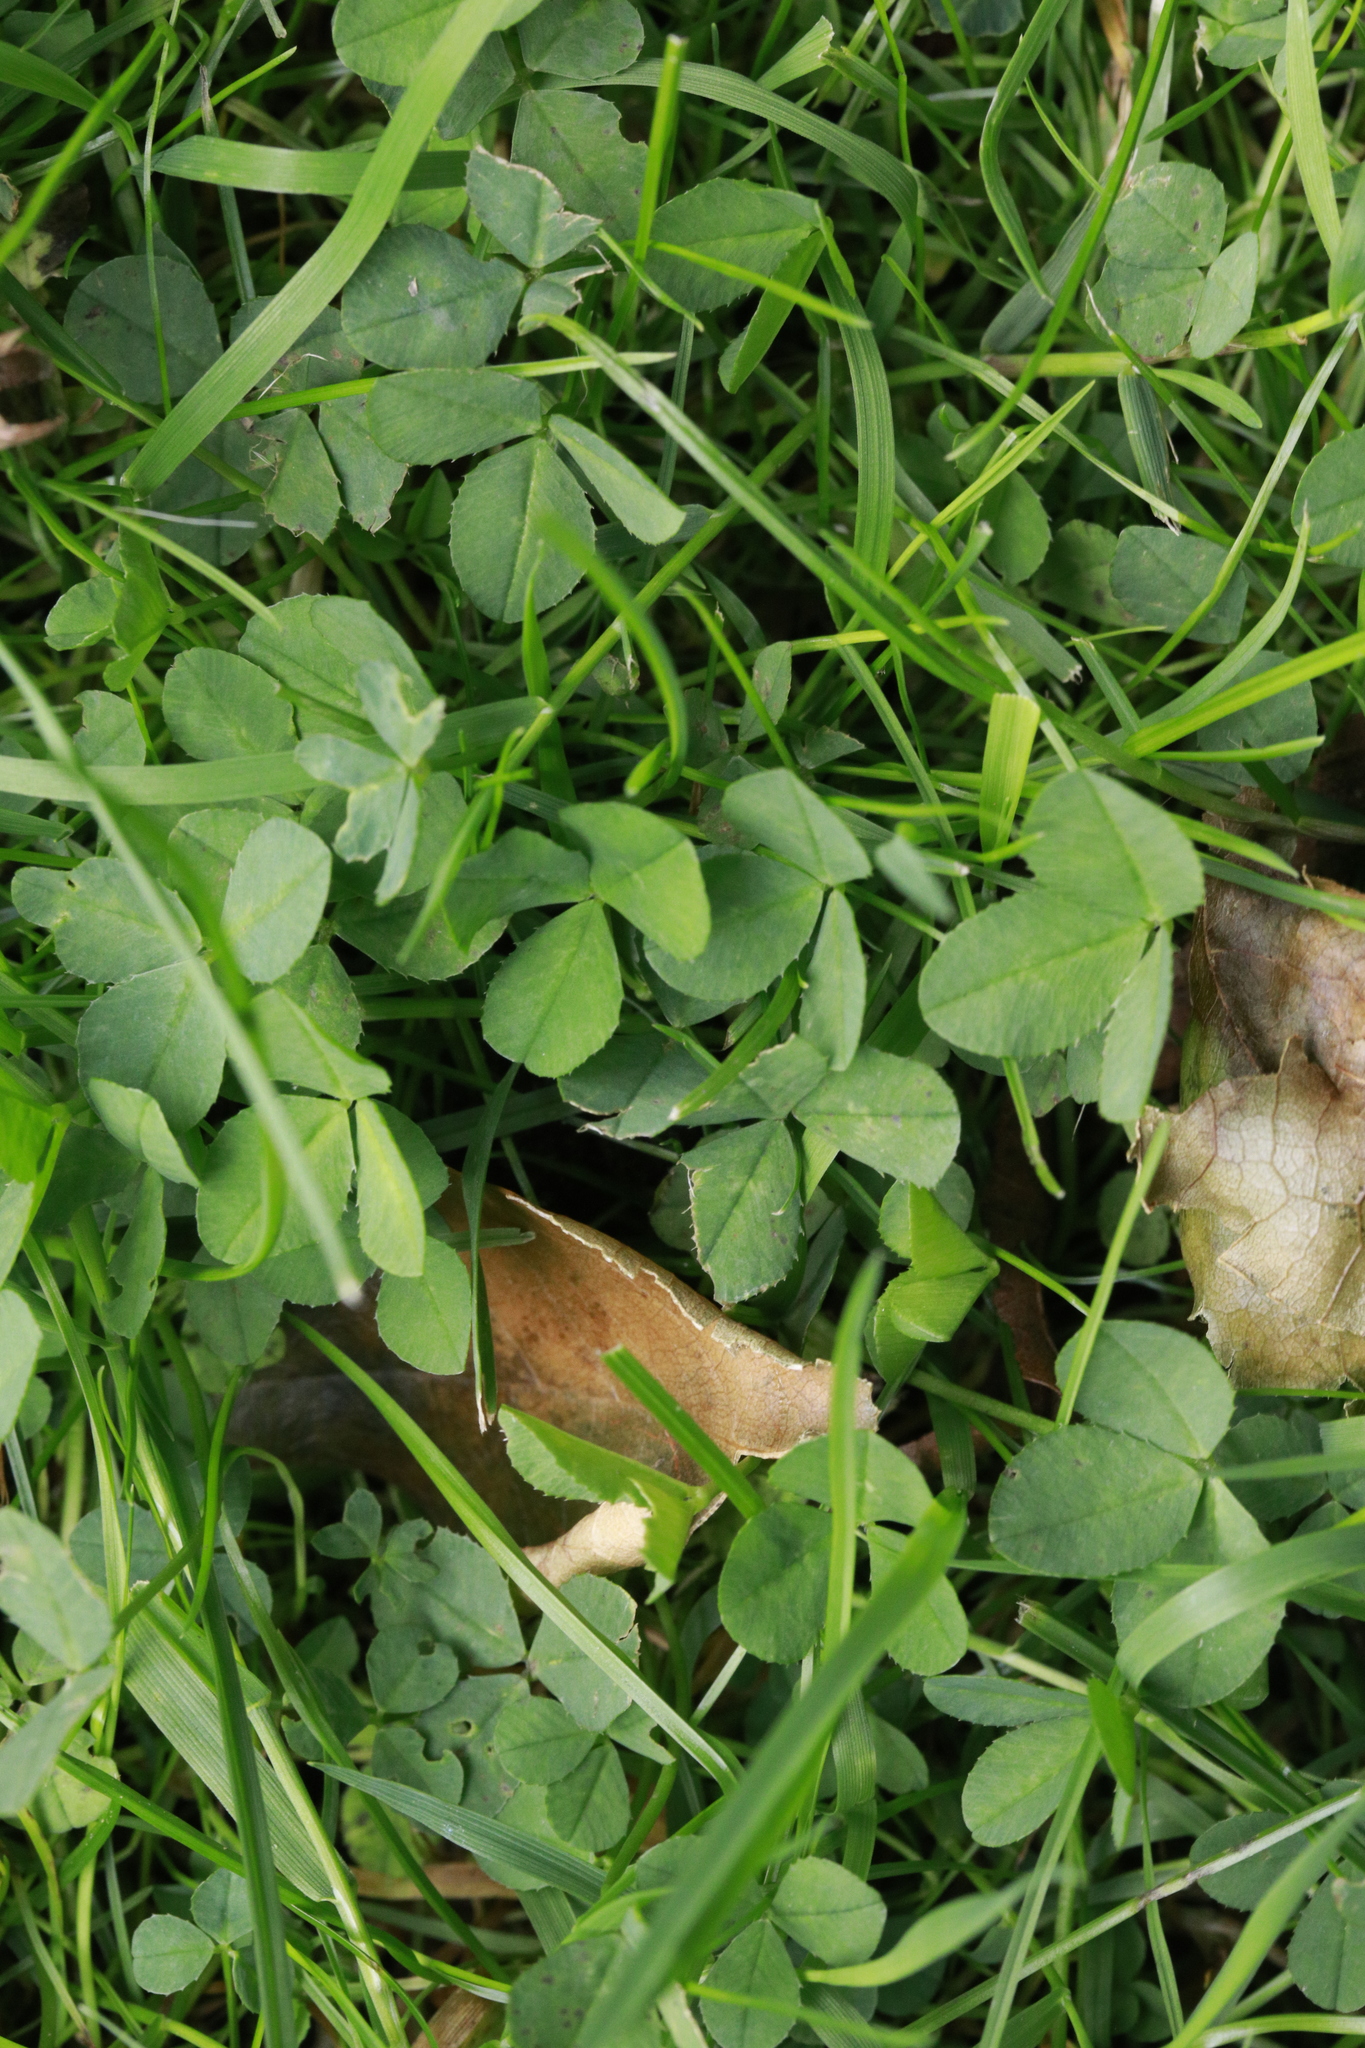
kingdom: Plantae
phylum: Tracheophyta
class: Magnoliopsida
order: Fabales
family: Fabaceae
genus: Trifolium
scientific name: Trifolium repens
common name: White clover
